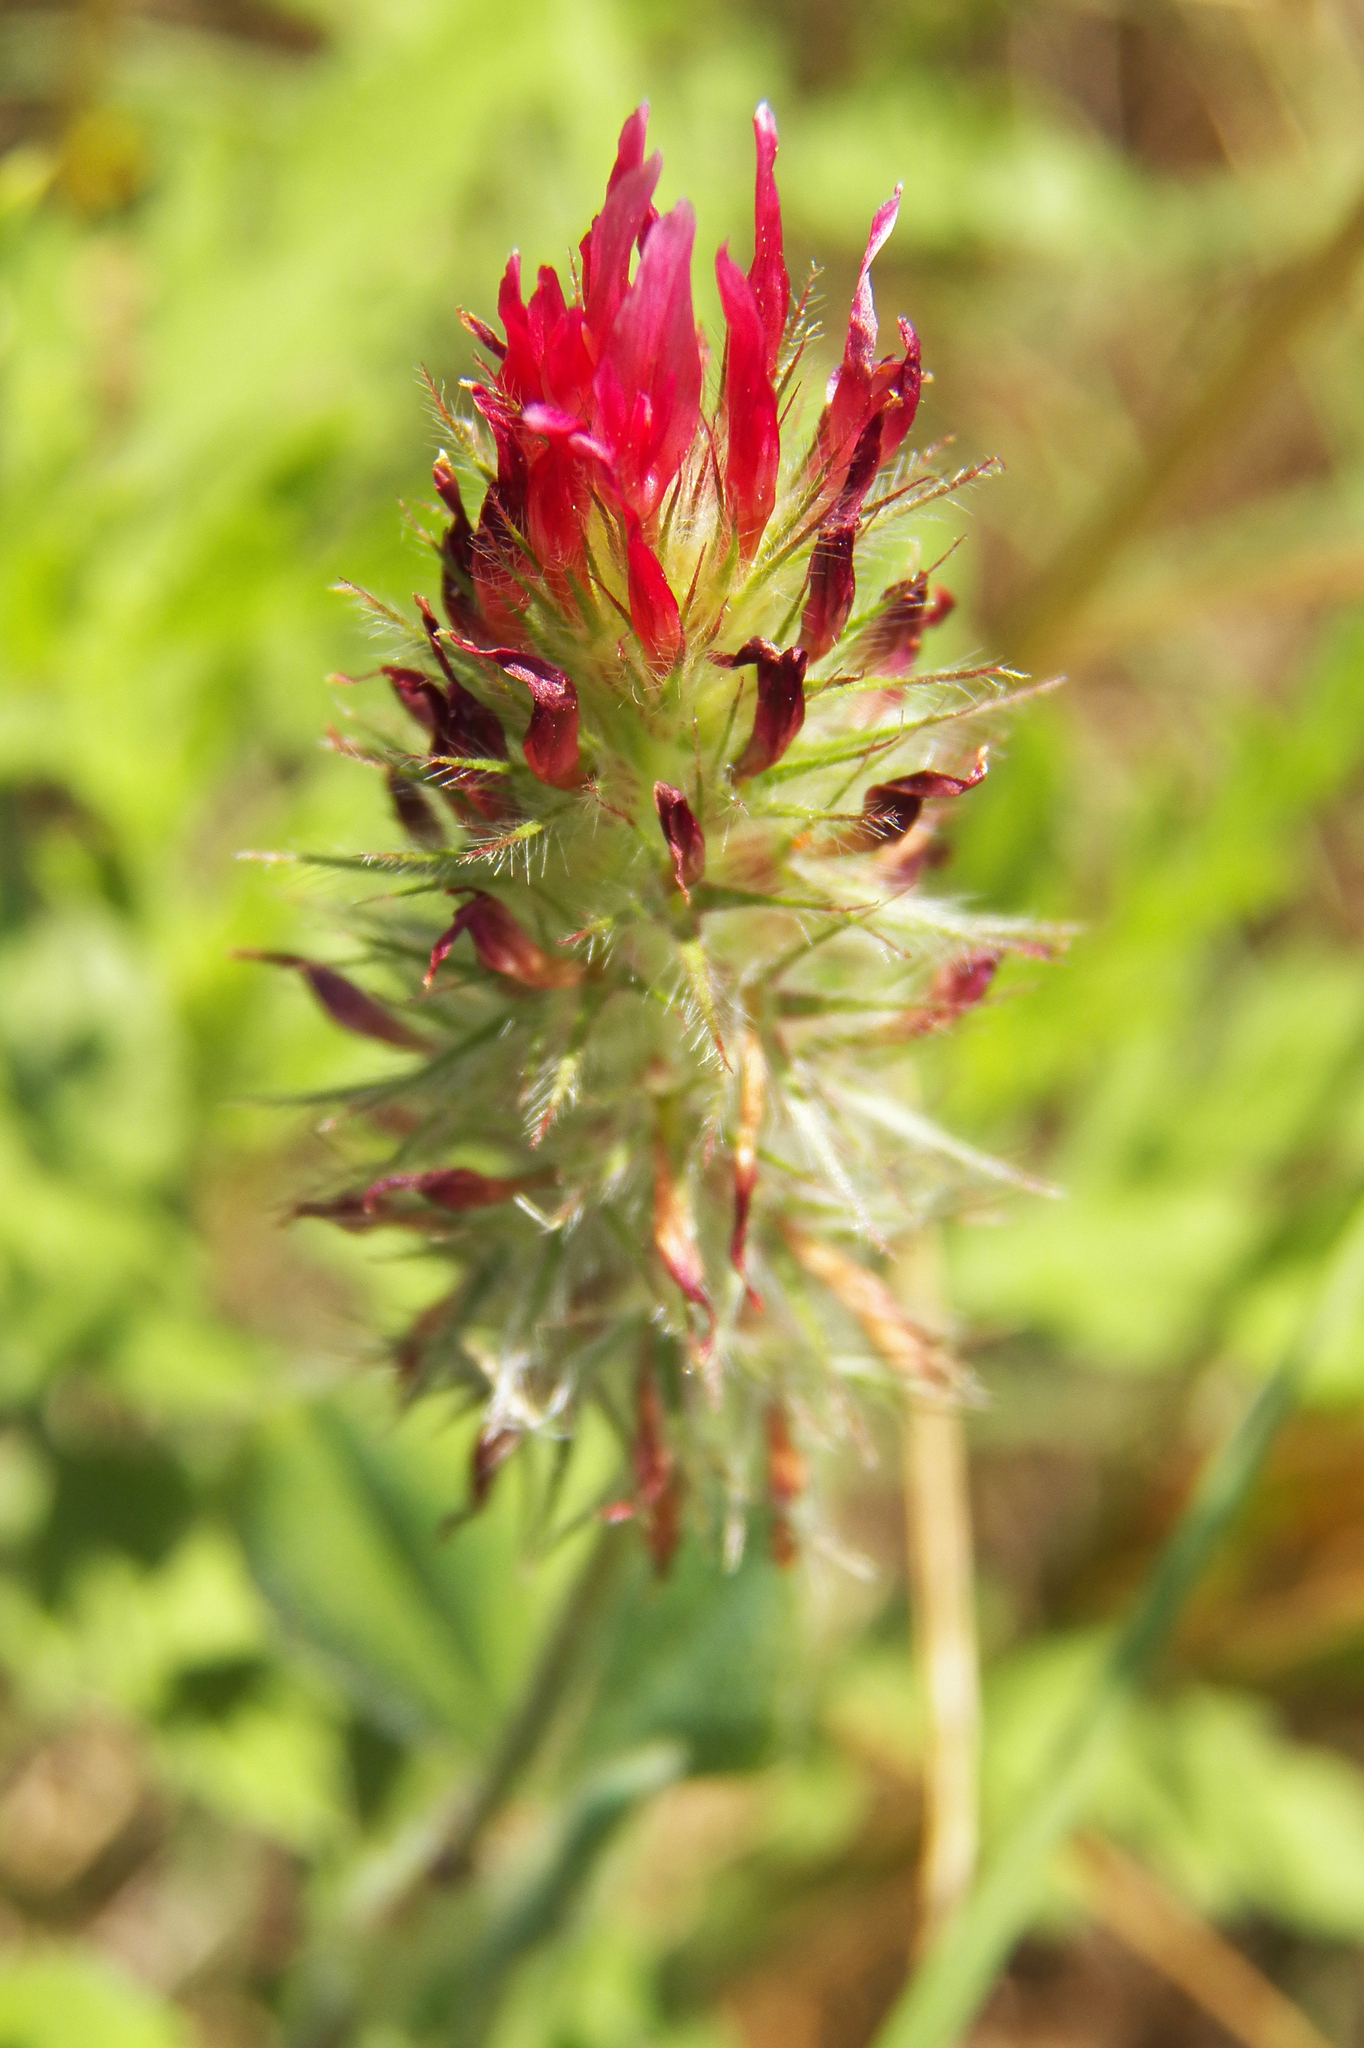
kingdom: Plantae
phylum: Tracheophyta
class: Magnoliopsida
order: Fabales
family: Fabaceae
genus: Trifolium
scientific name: Trifolium incarnatum
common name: Crimson clover
